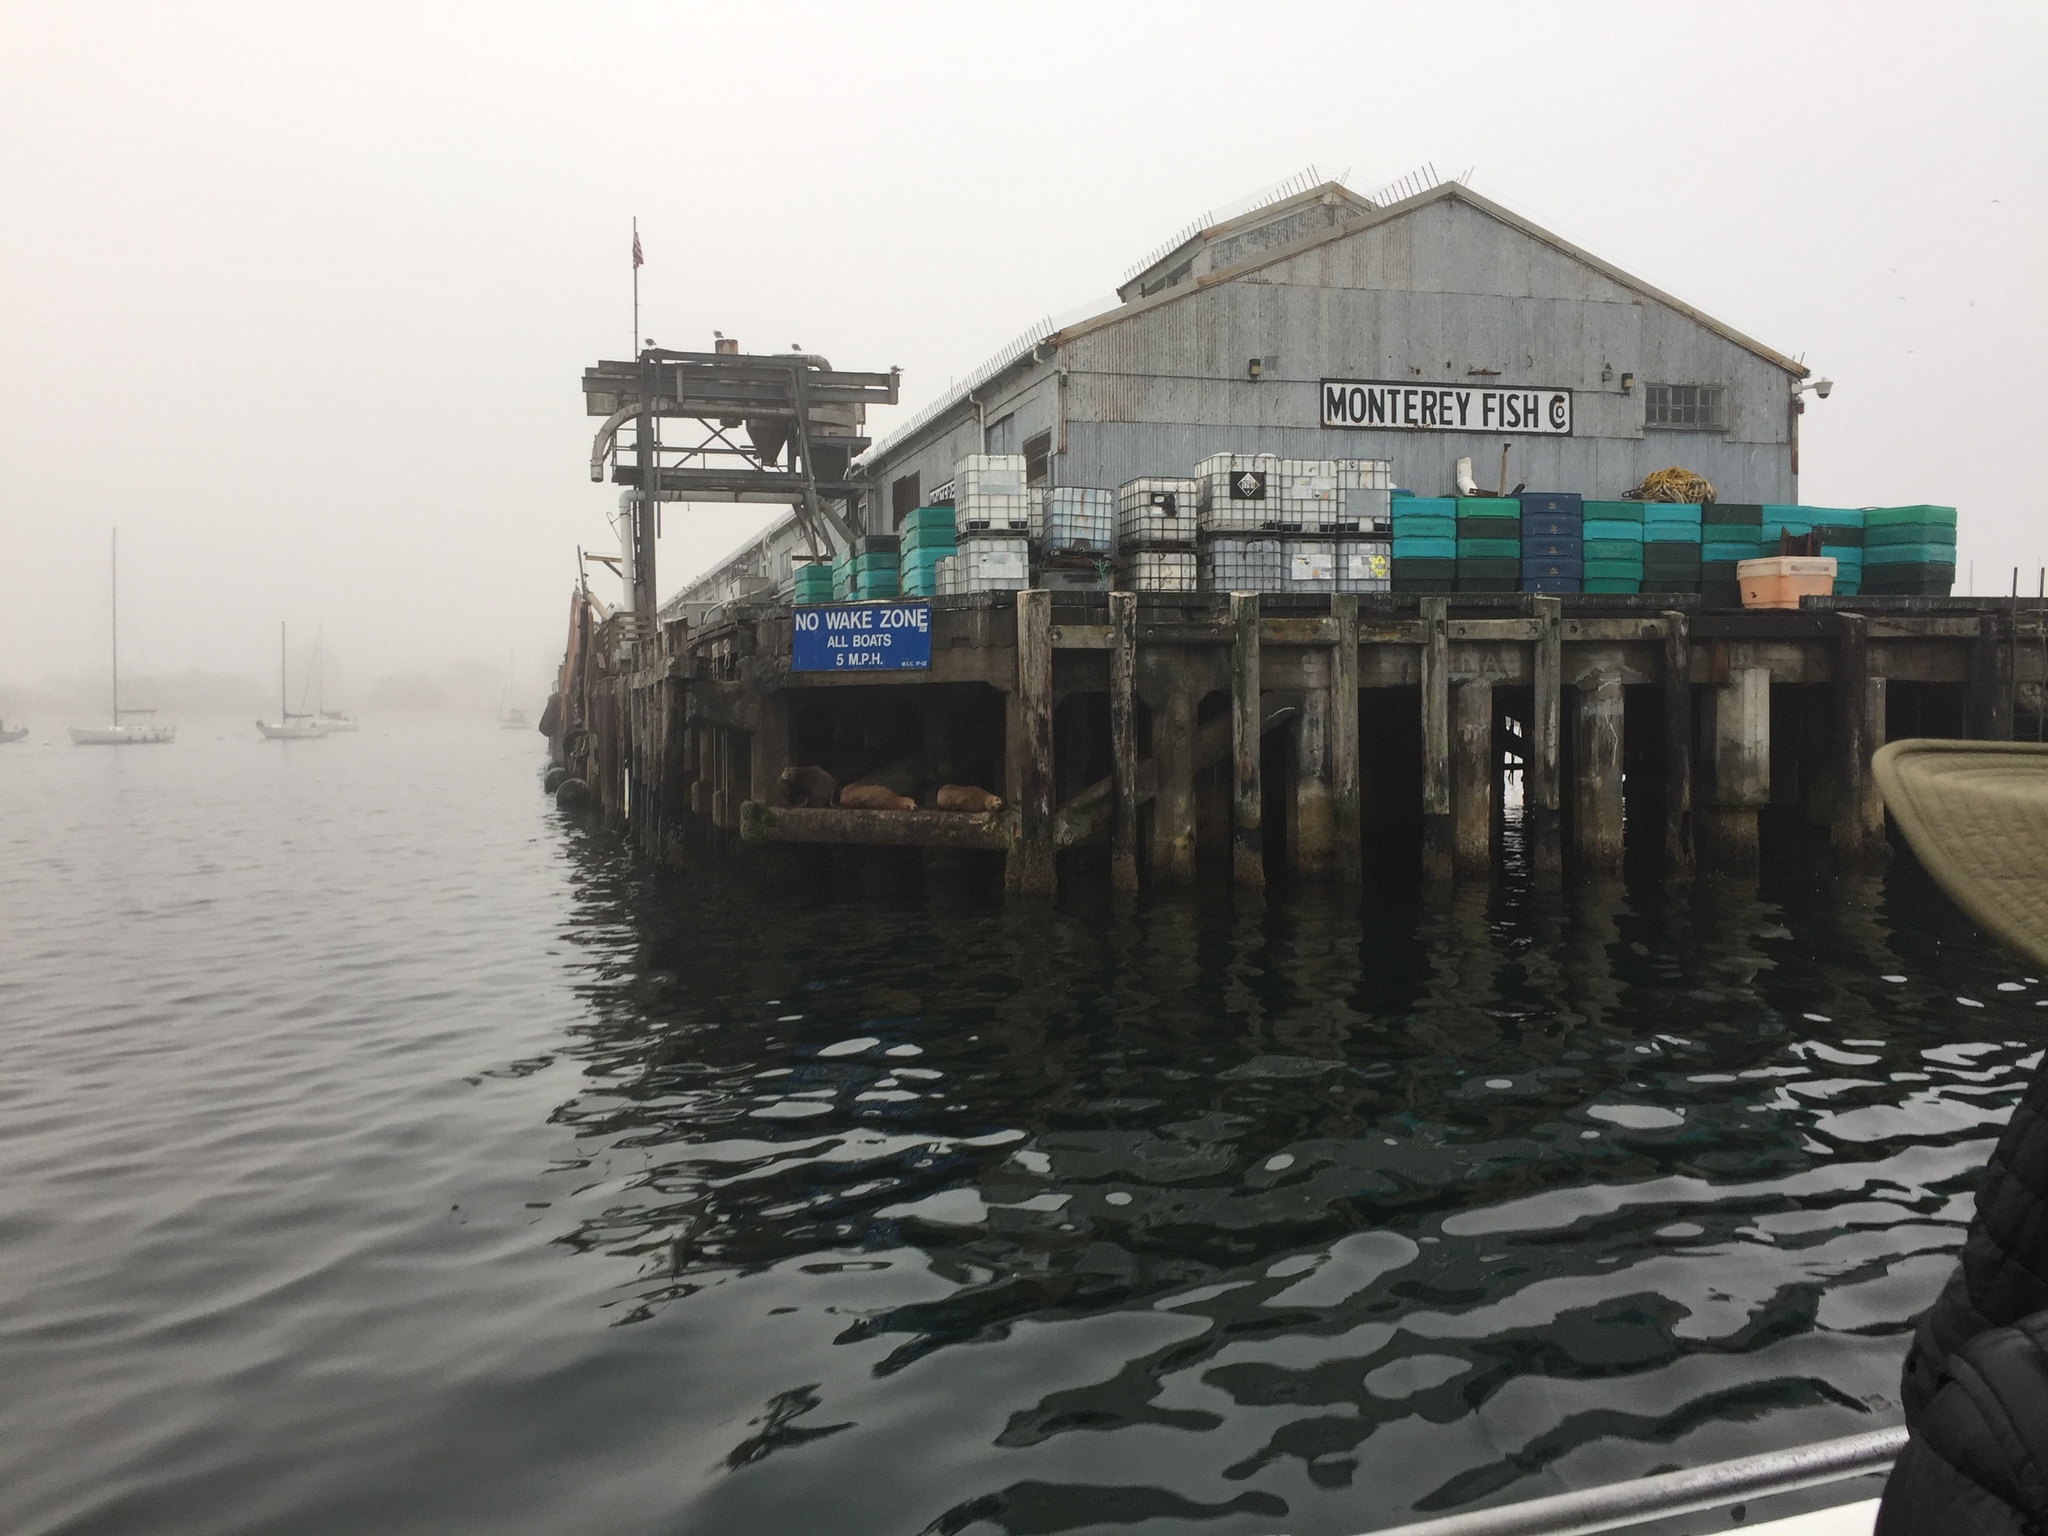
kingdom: Animalia
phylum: Chordata
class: Mammalia
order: Carnivora
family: Otariidae
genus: Zalophus
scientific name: Zalophus californianus
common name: California sea lion
